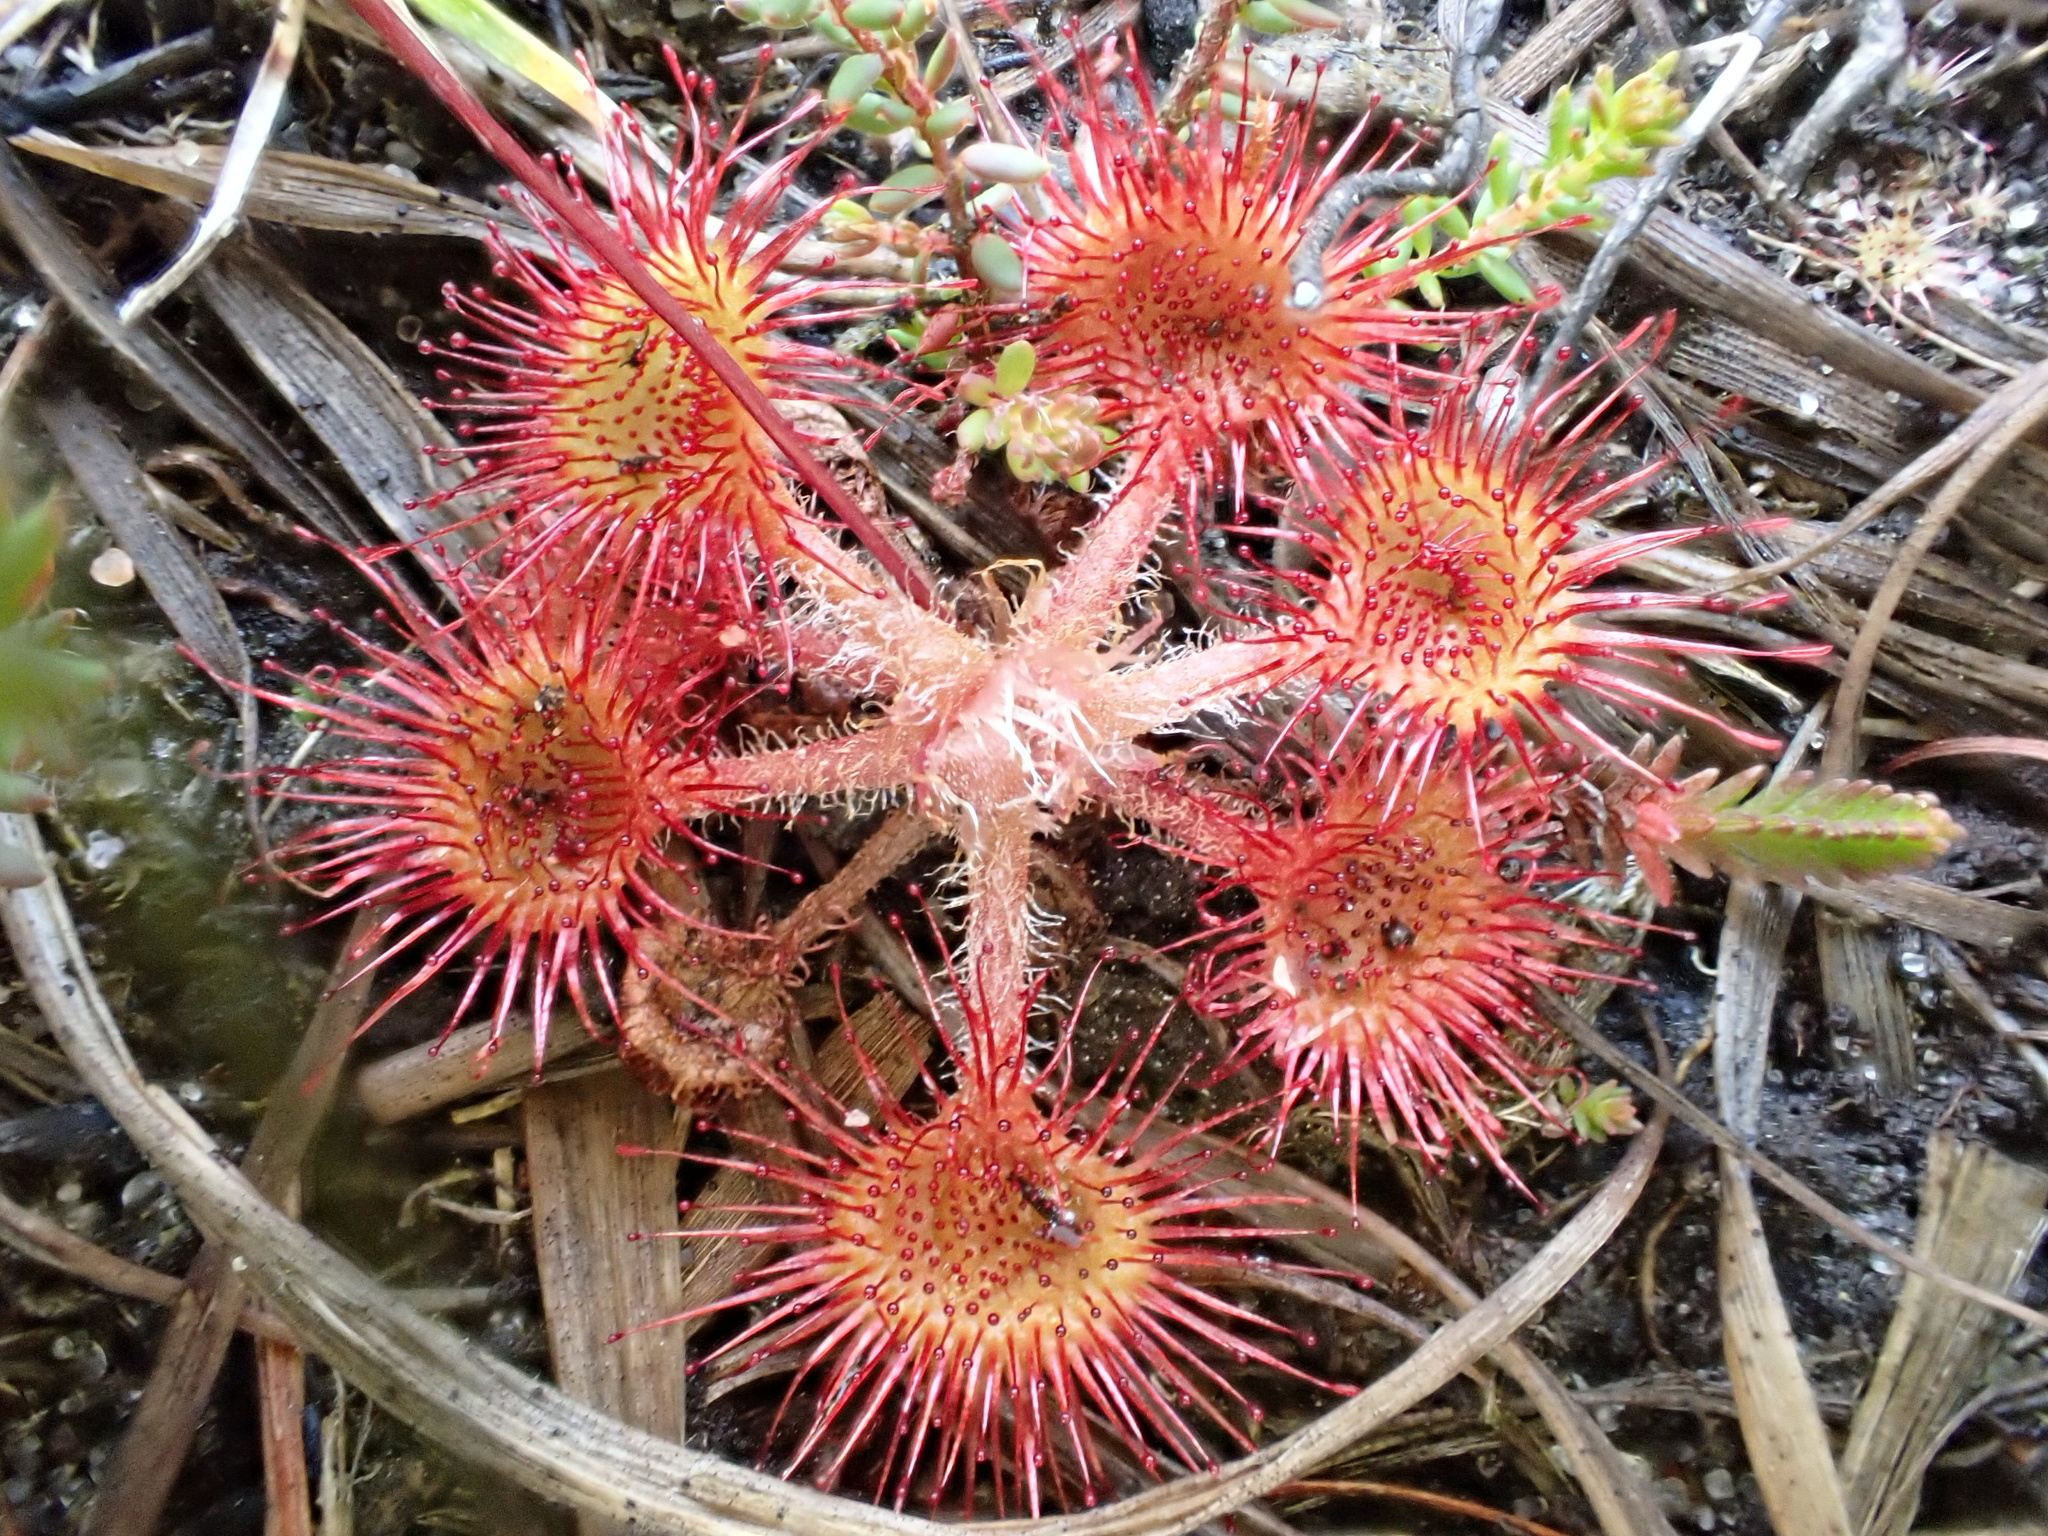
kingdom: Plantae
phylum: Tracheophyta
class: Magnoliopsida
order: Caryophyllales
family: Droseraceae
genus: Drosera
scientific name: Drosera rotundifolia
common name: Round-leaved sundew
